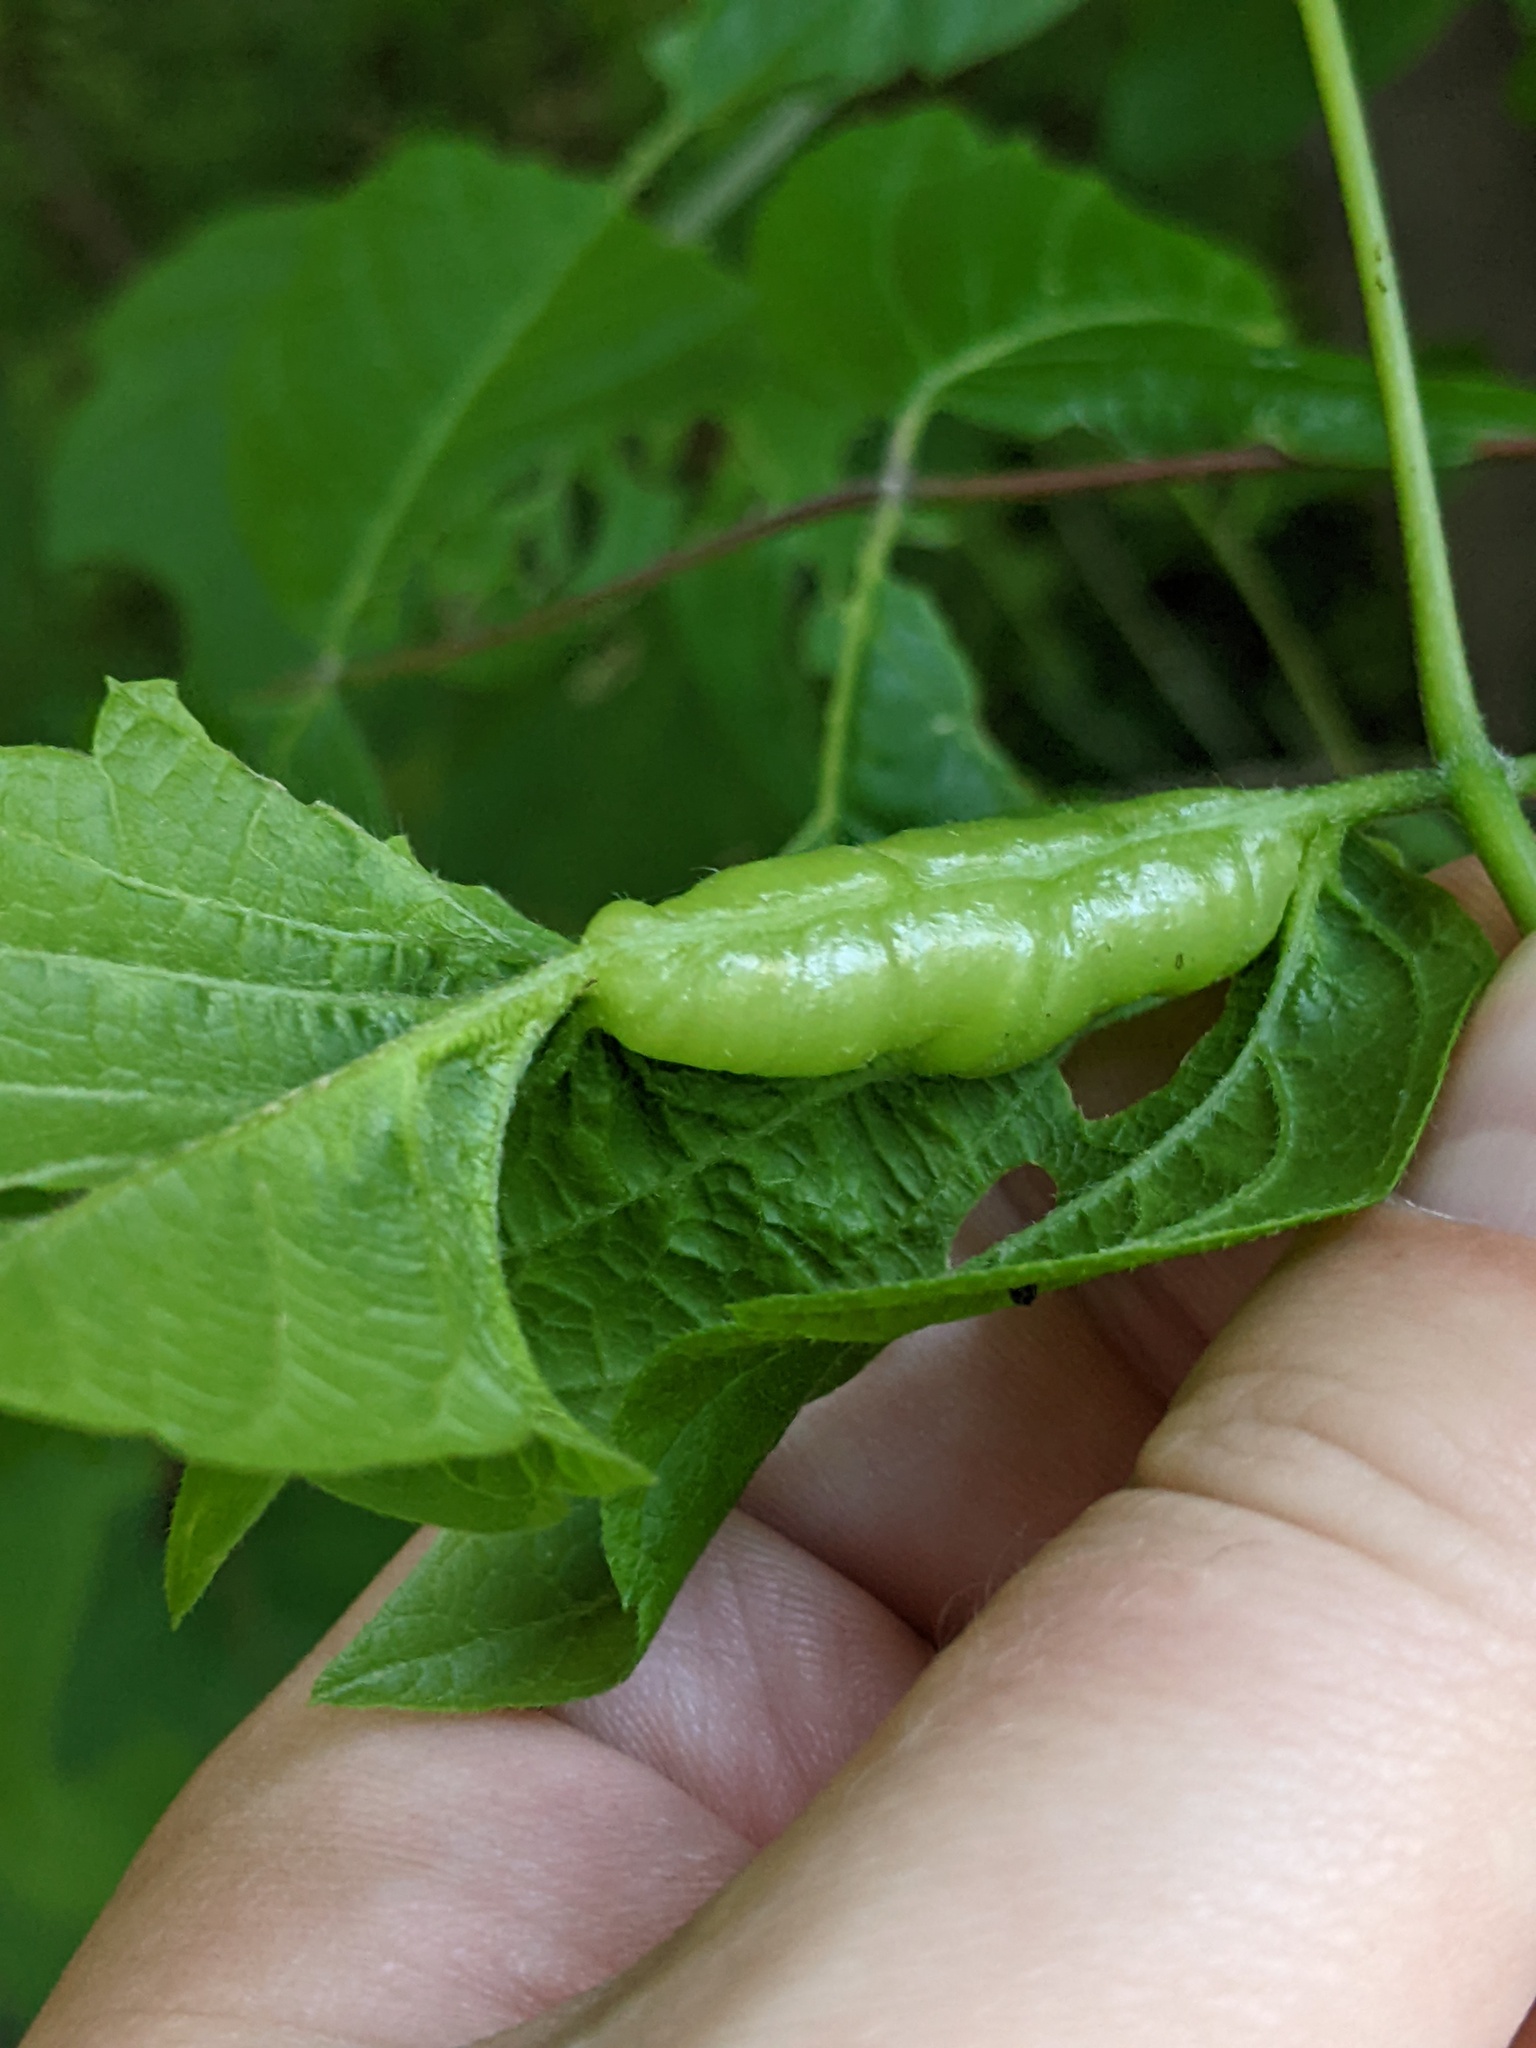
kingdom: Animalia
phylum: Arthropoda
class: Insecta
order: Diptera
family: Cecidomyiidae
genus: Contarinia
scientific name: Contarinia negundinis
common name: Boxelder budgall midge
